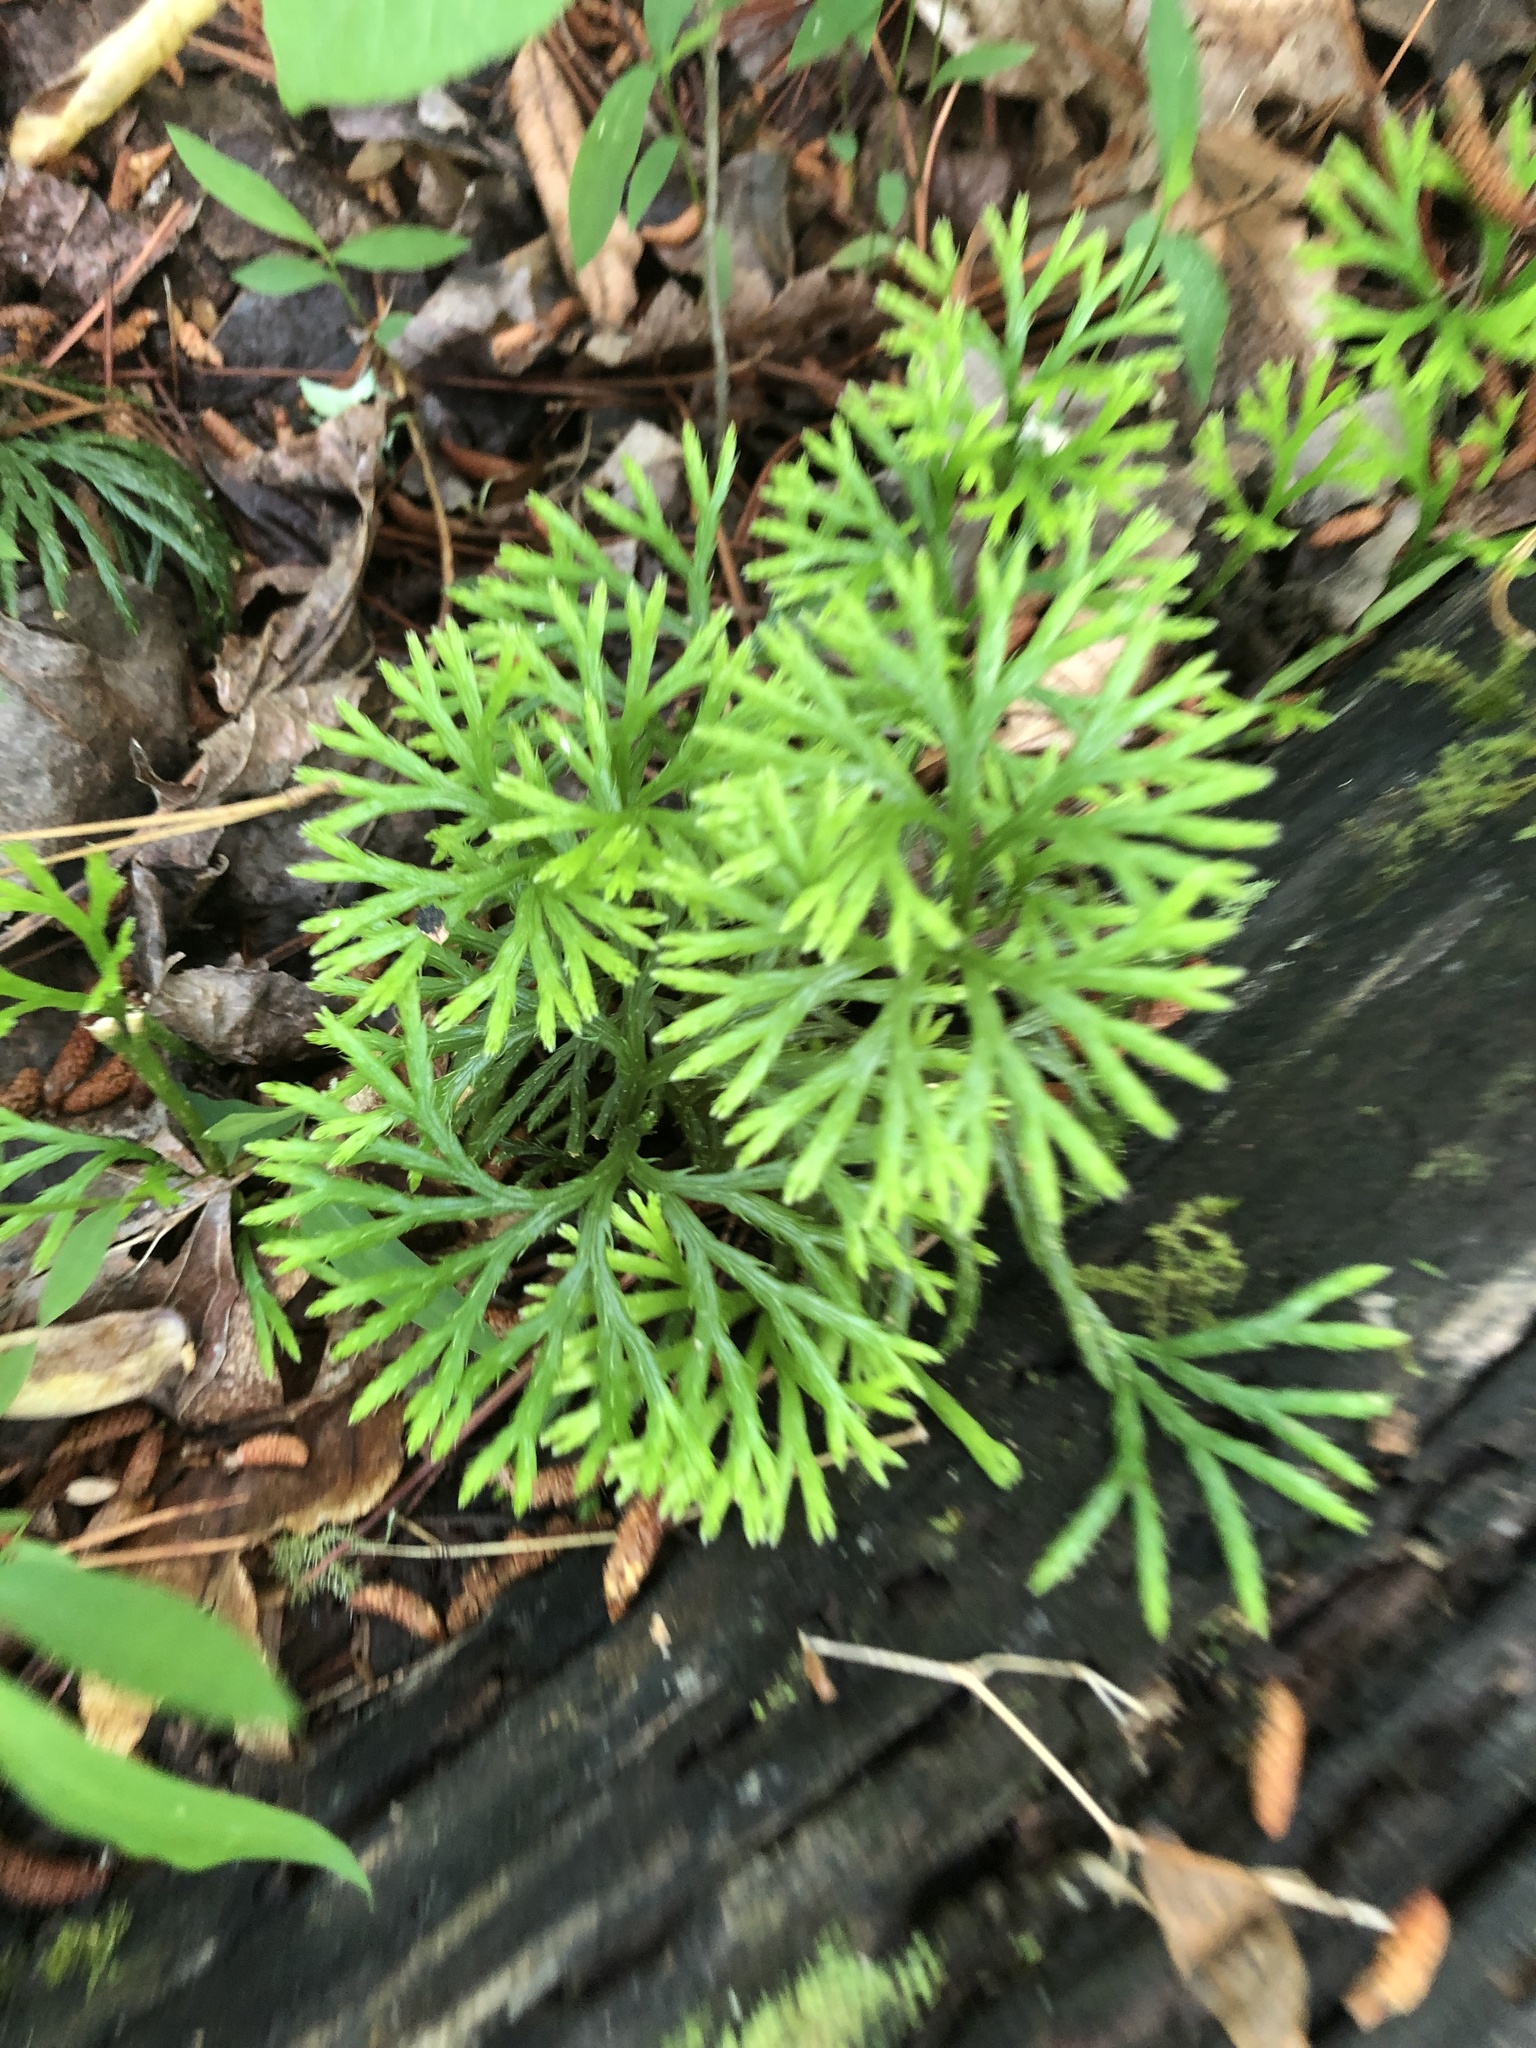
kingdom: Plantae
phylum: Tracheophyta
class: Lycopodiopsida
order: Lycopodiales
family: Lycopodiaceae
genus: Diphasiastrum
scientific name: Diphasiastrum digitatum
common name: Southern running-pine
